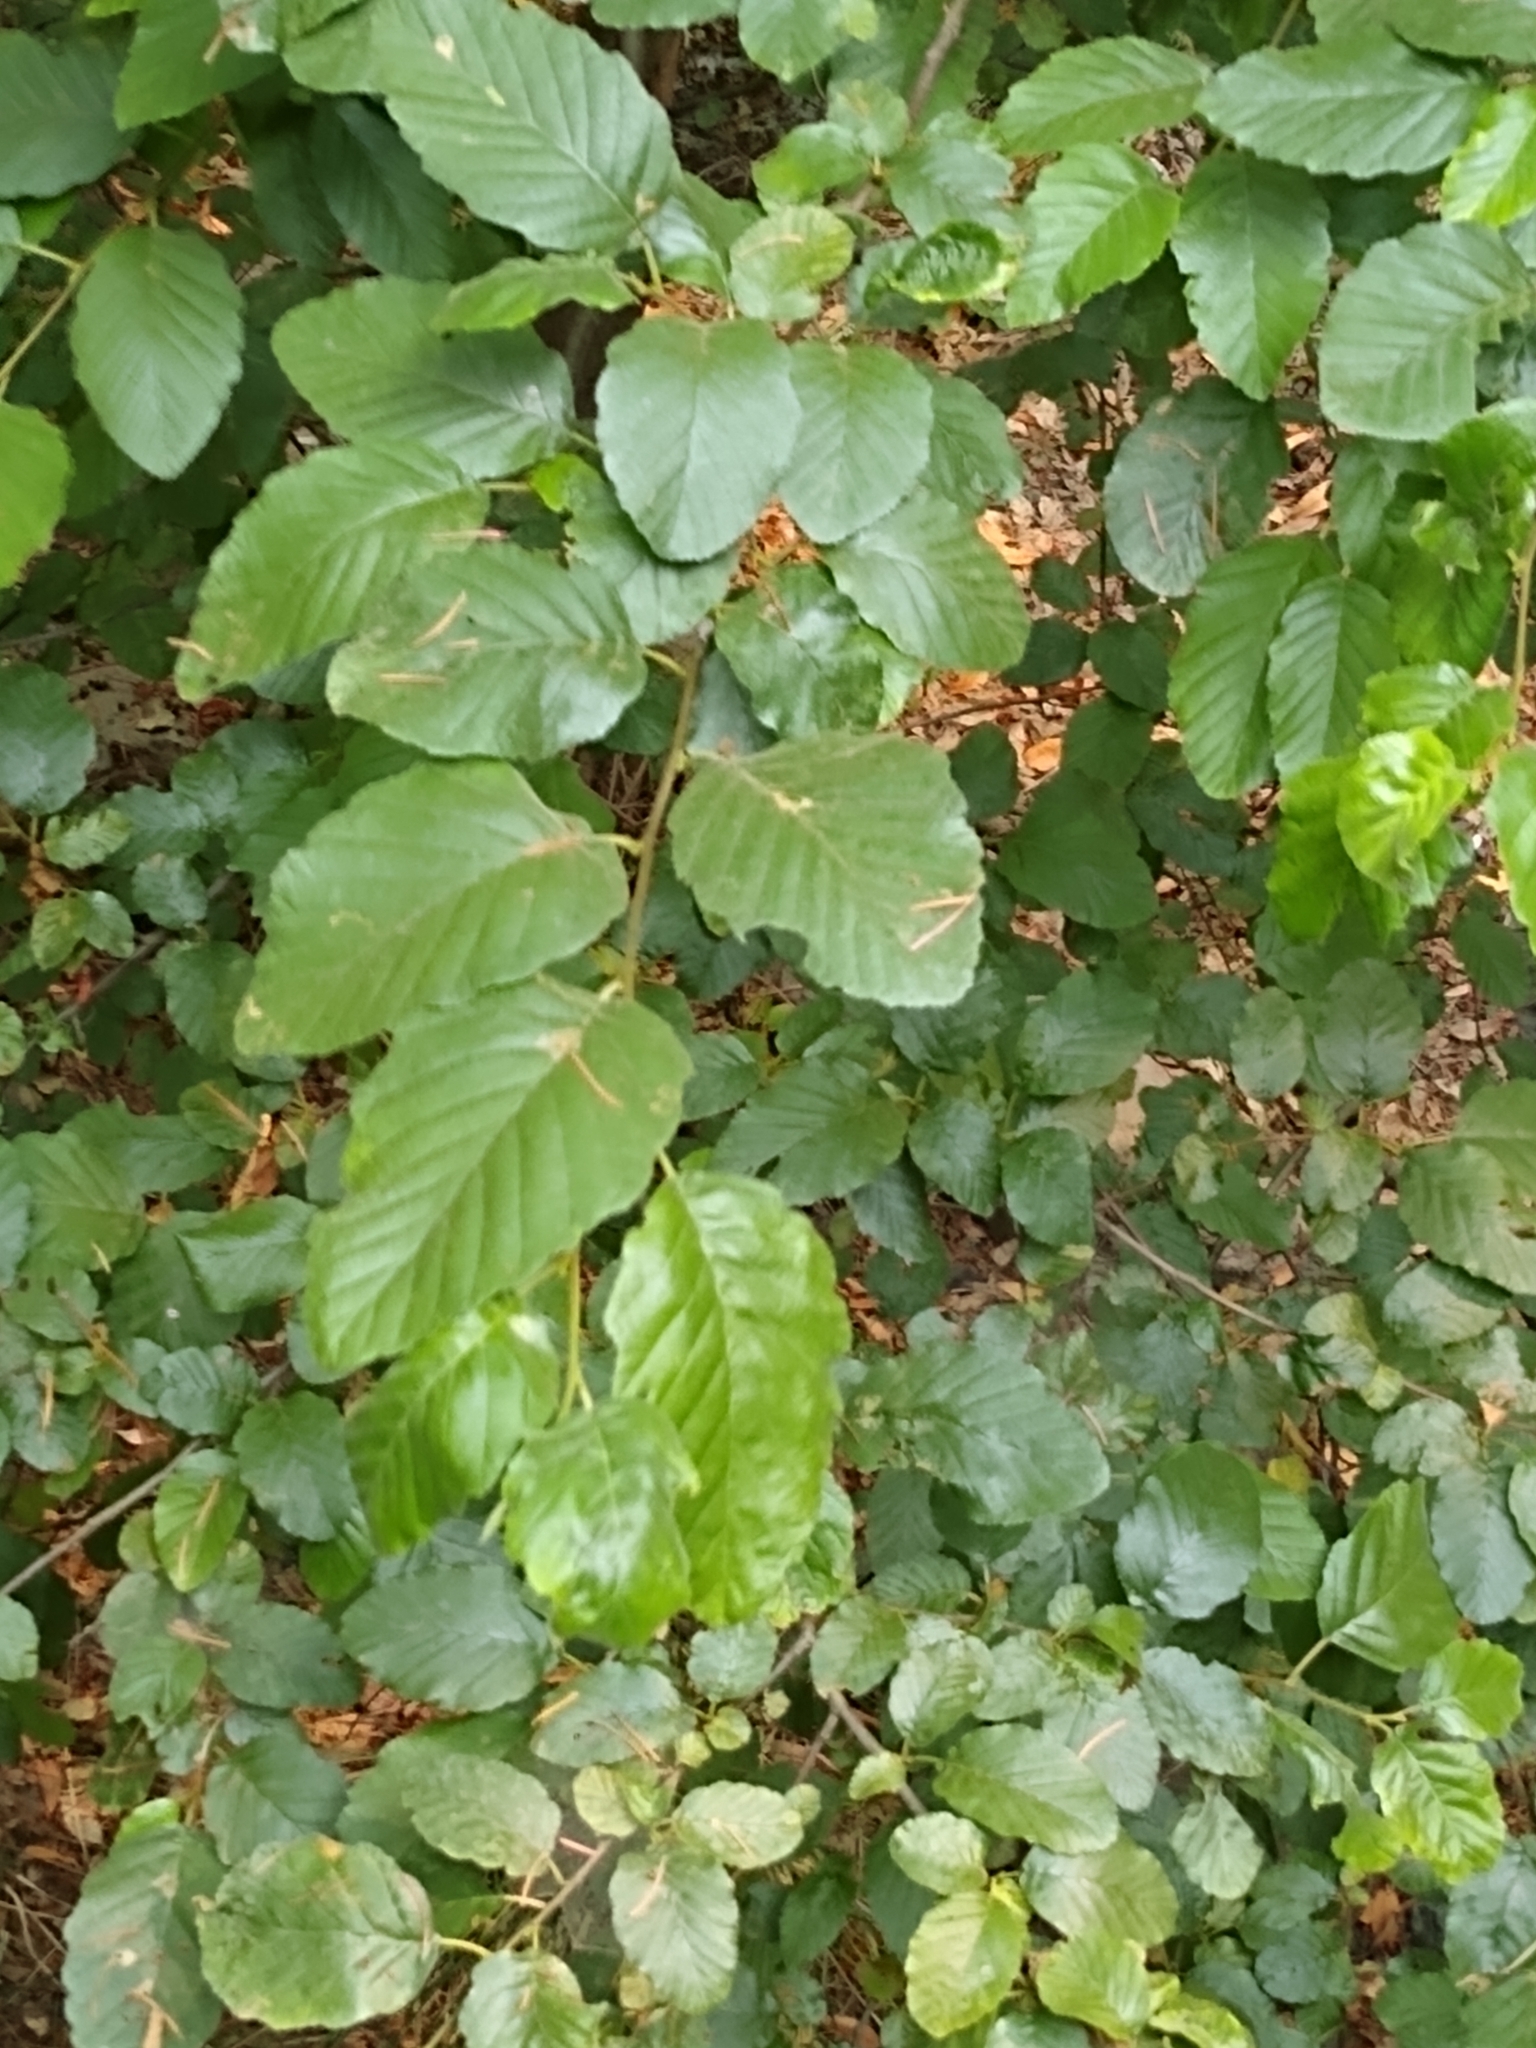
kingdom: Plantae
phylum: Tracheophyta
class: Magnoliopsida
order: Laurales
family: Calycanthaceae
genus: Calycanthus
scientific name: Calycanthus occidentalis
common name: California spicebush
